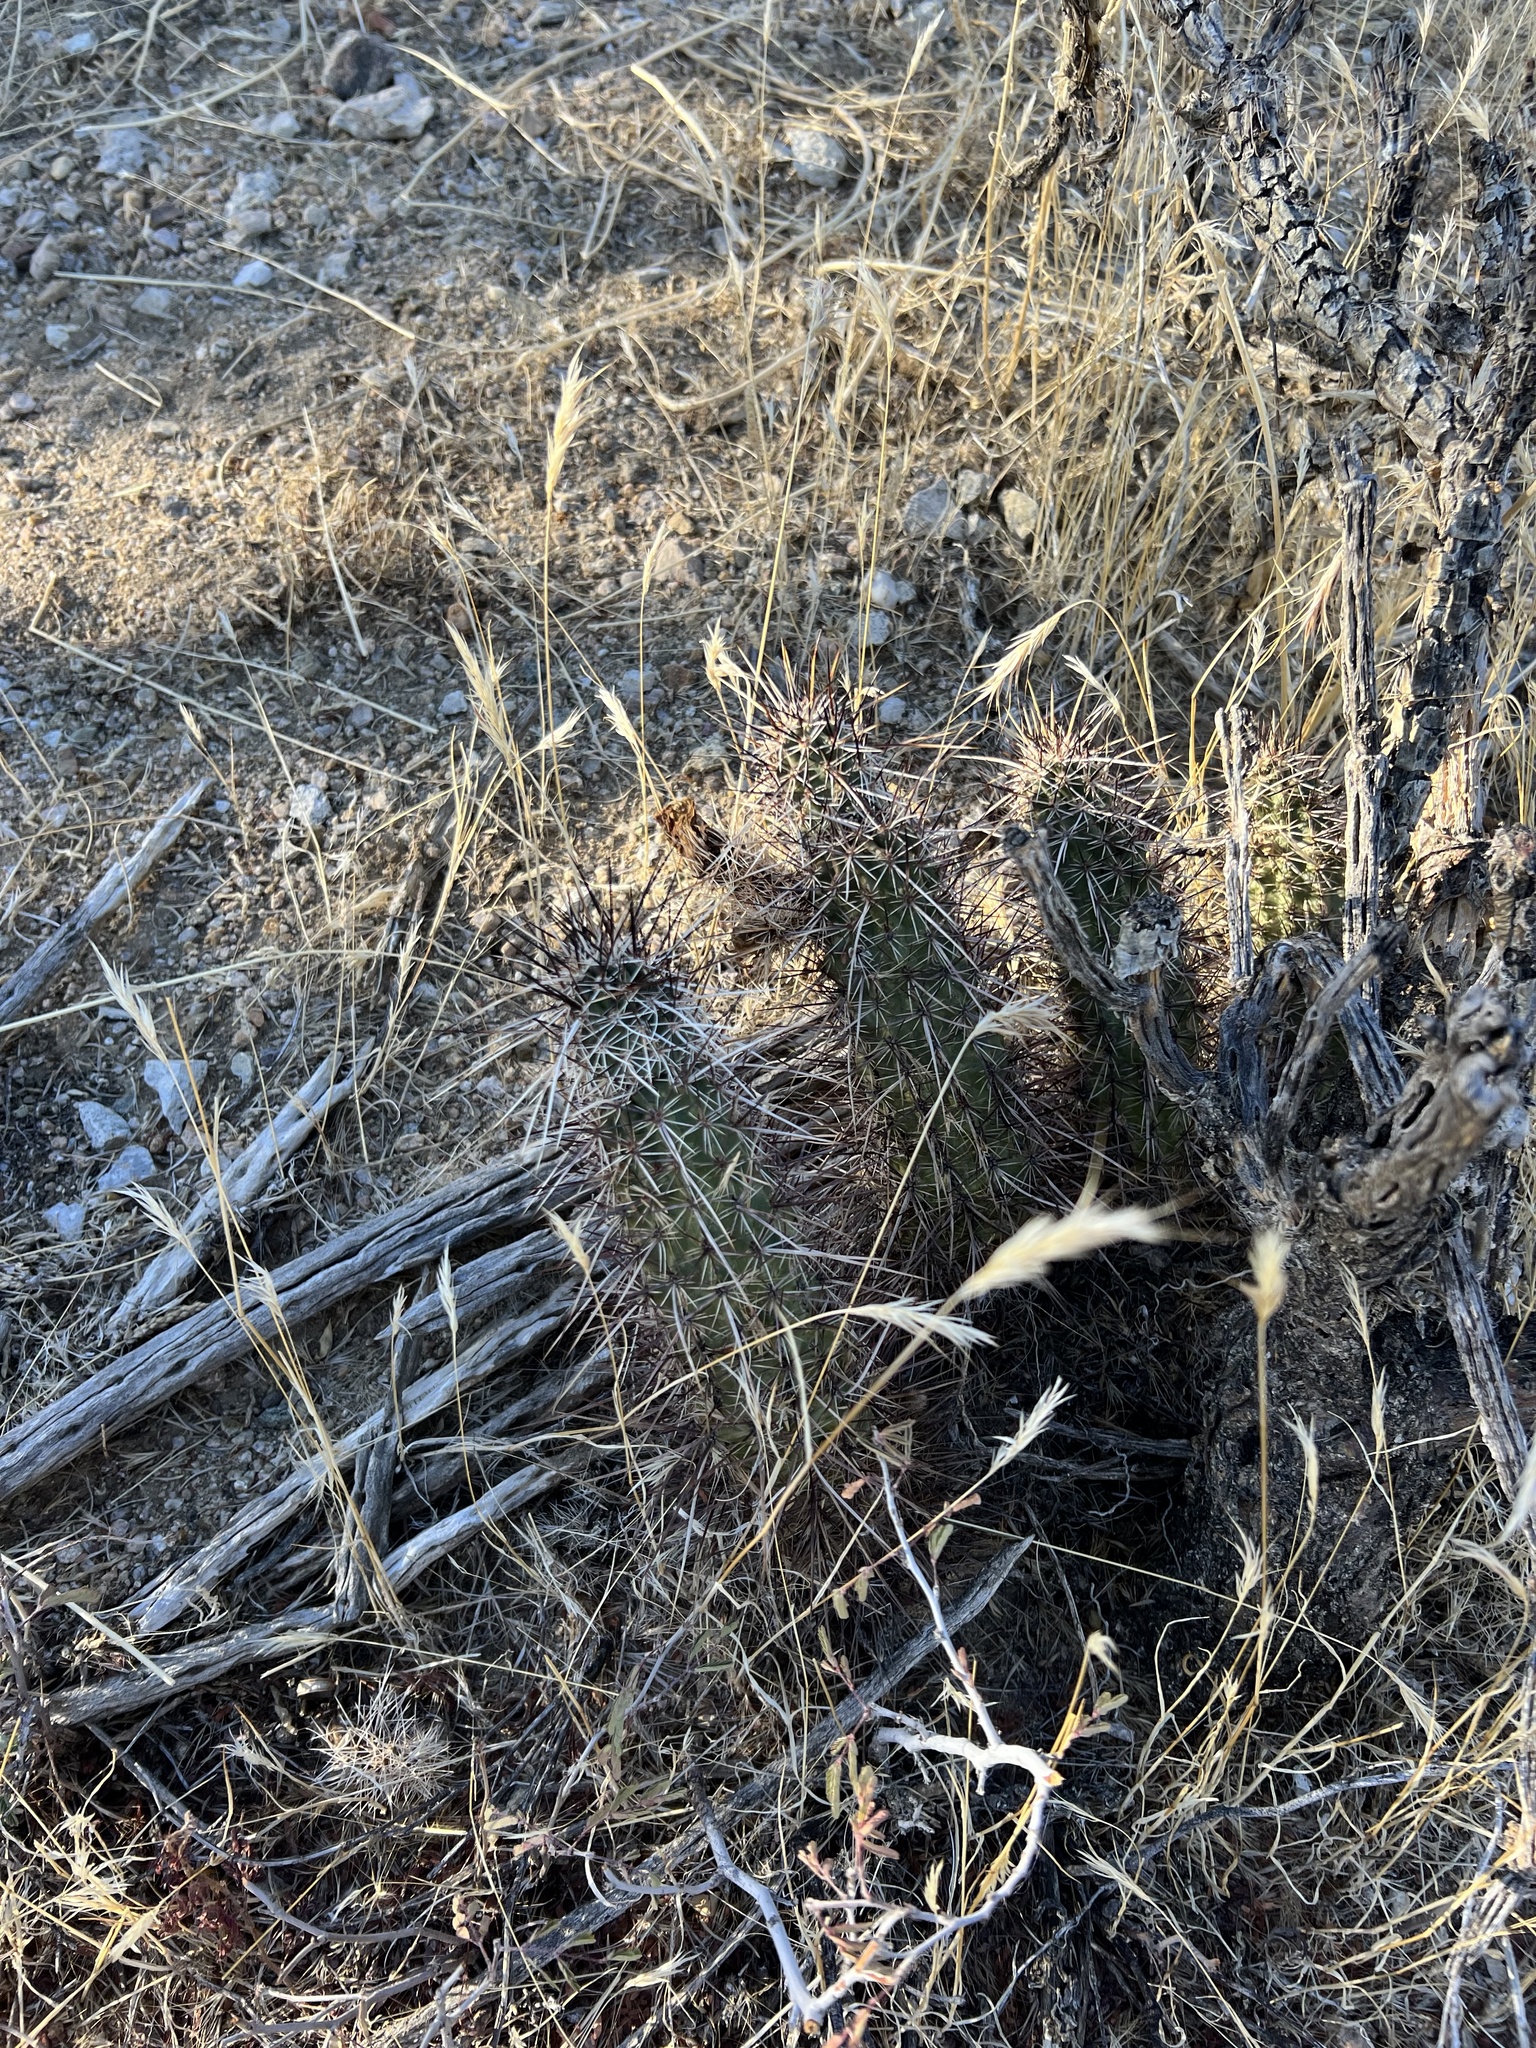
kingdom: Plantae
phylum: Tracheophyta
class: Magnoliopsida
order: Caryophyllales
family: Cactaceae
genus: Echinocereus
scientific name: Echinocereus engelmannii
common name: Engelmann's hedgehog cactus
